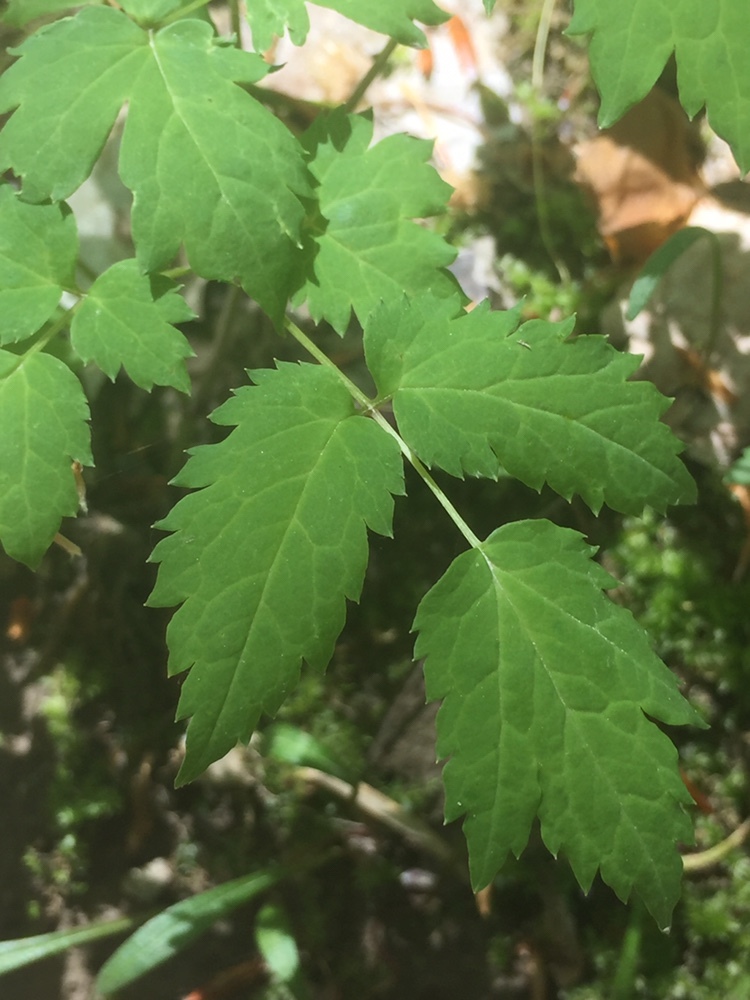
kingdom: Plantae
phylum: Tracheophyta
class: Magnoliopsida
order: Ranunculales
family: Ranunculaceae
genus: Actaea
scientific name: Actaea pachypoda
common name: Doll's-eyes
